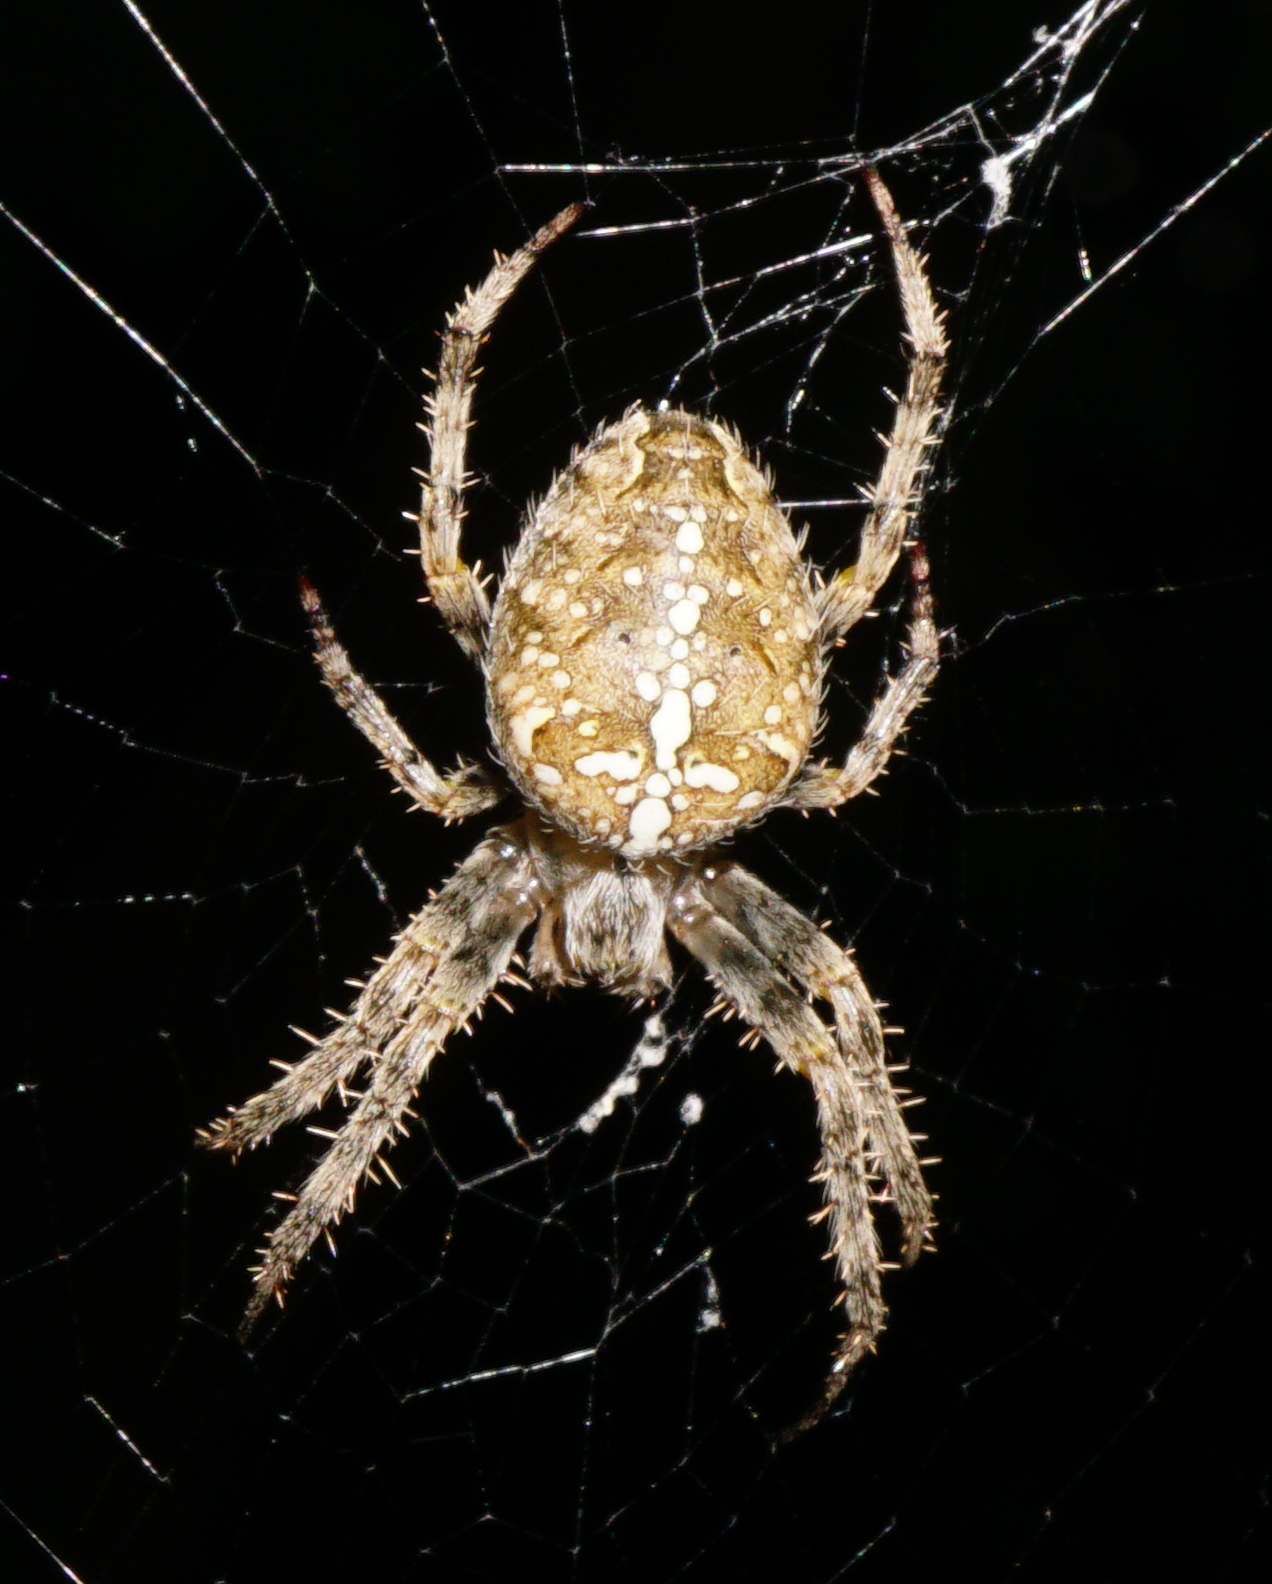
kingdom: Animalia
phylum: Arthropoda
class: Arachnida
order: Araneae
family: Araneidae
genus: Araneus
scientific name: Araneus diadematus
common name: Cross orbweaver
